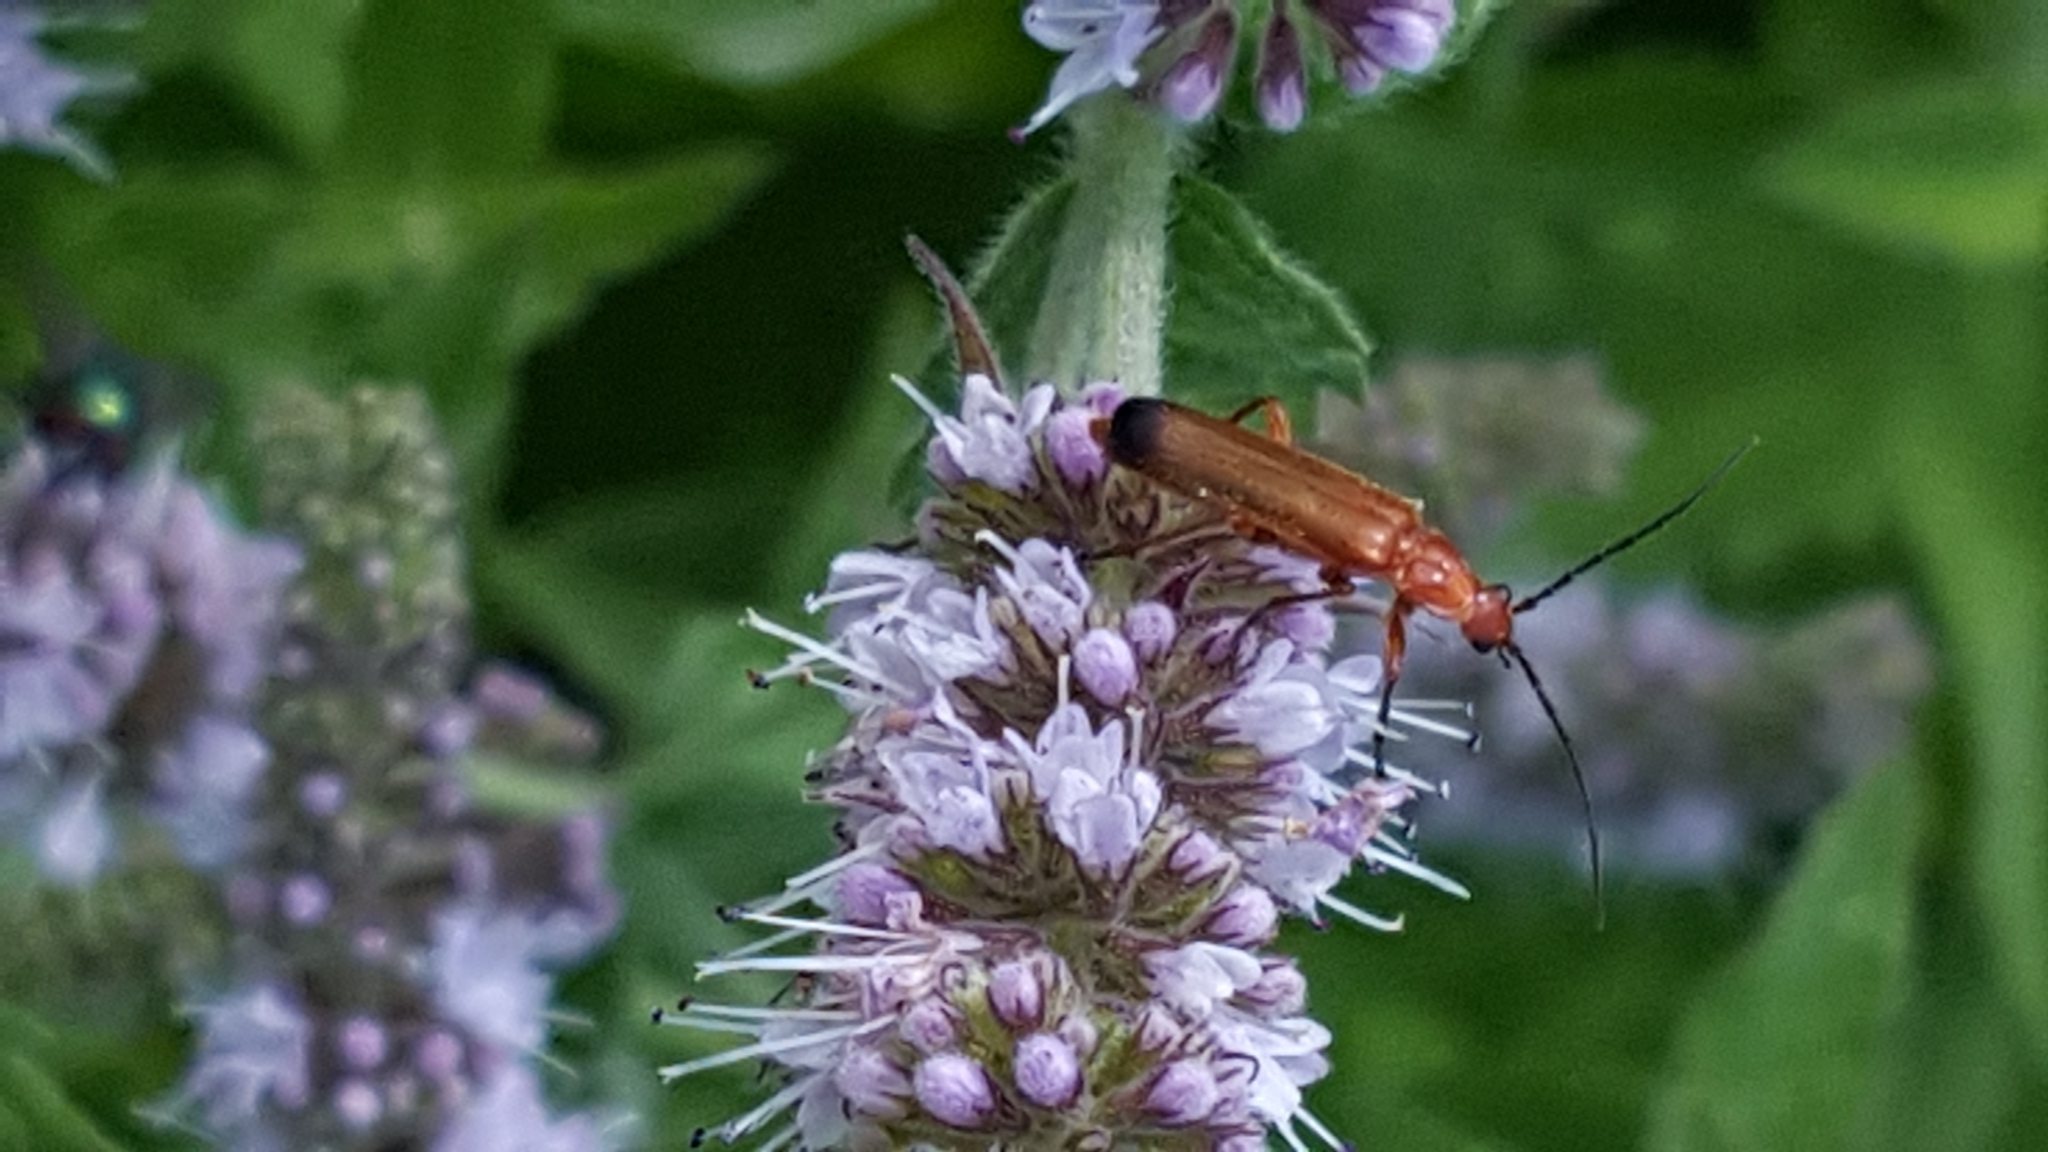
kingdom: Animalia
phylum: Arthropoda
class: Insecta
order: Coleoptera
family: Cantharidae
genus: Rhagonycha
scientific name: Rhagonycha fulva
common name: Common red soldier beetle
